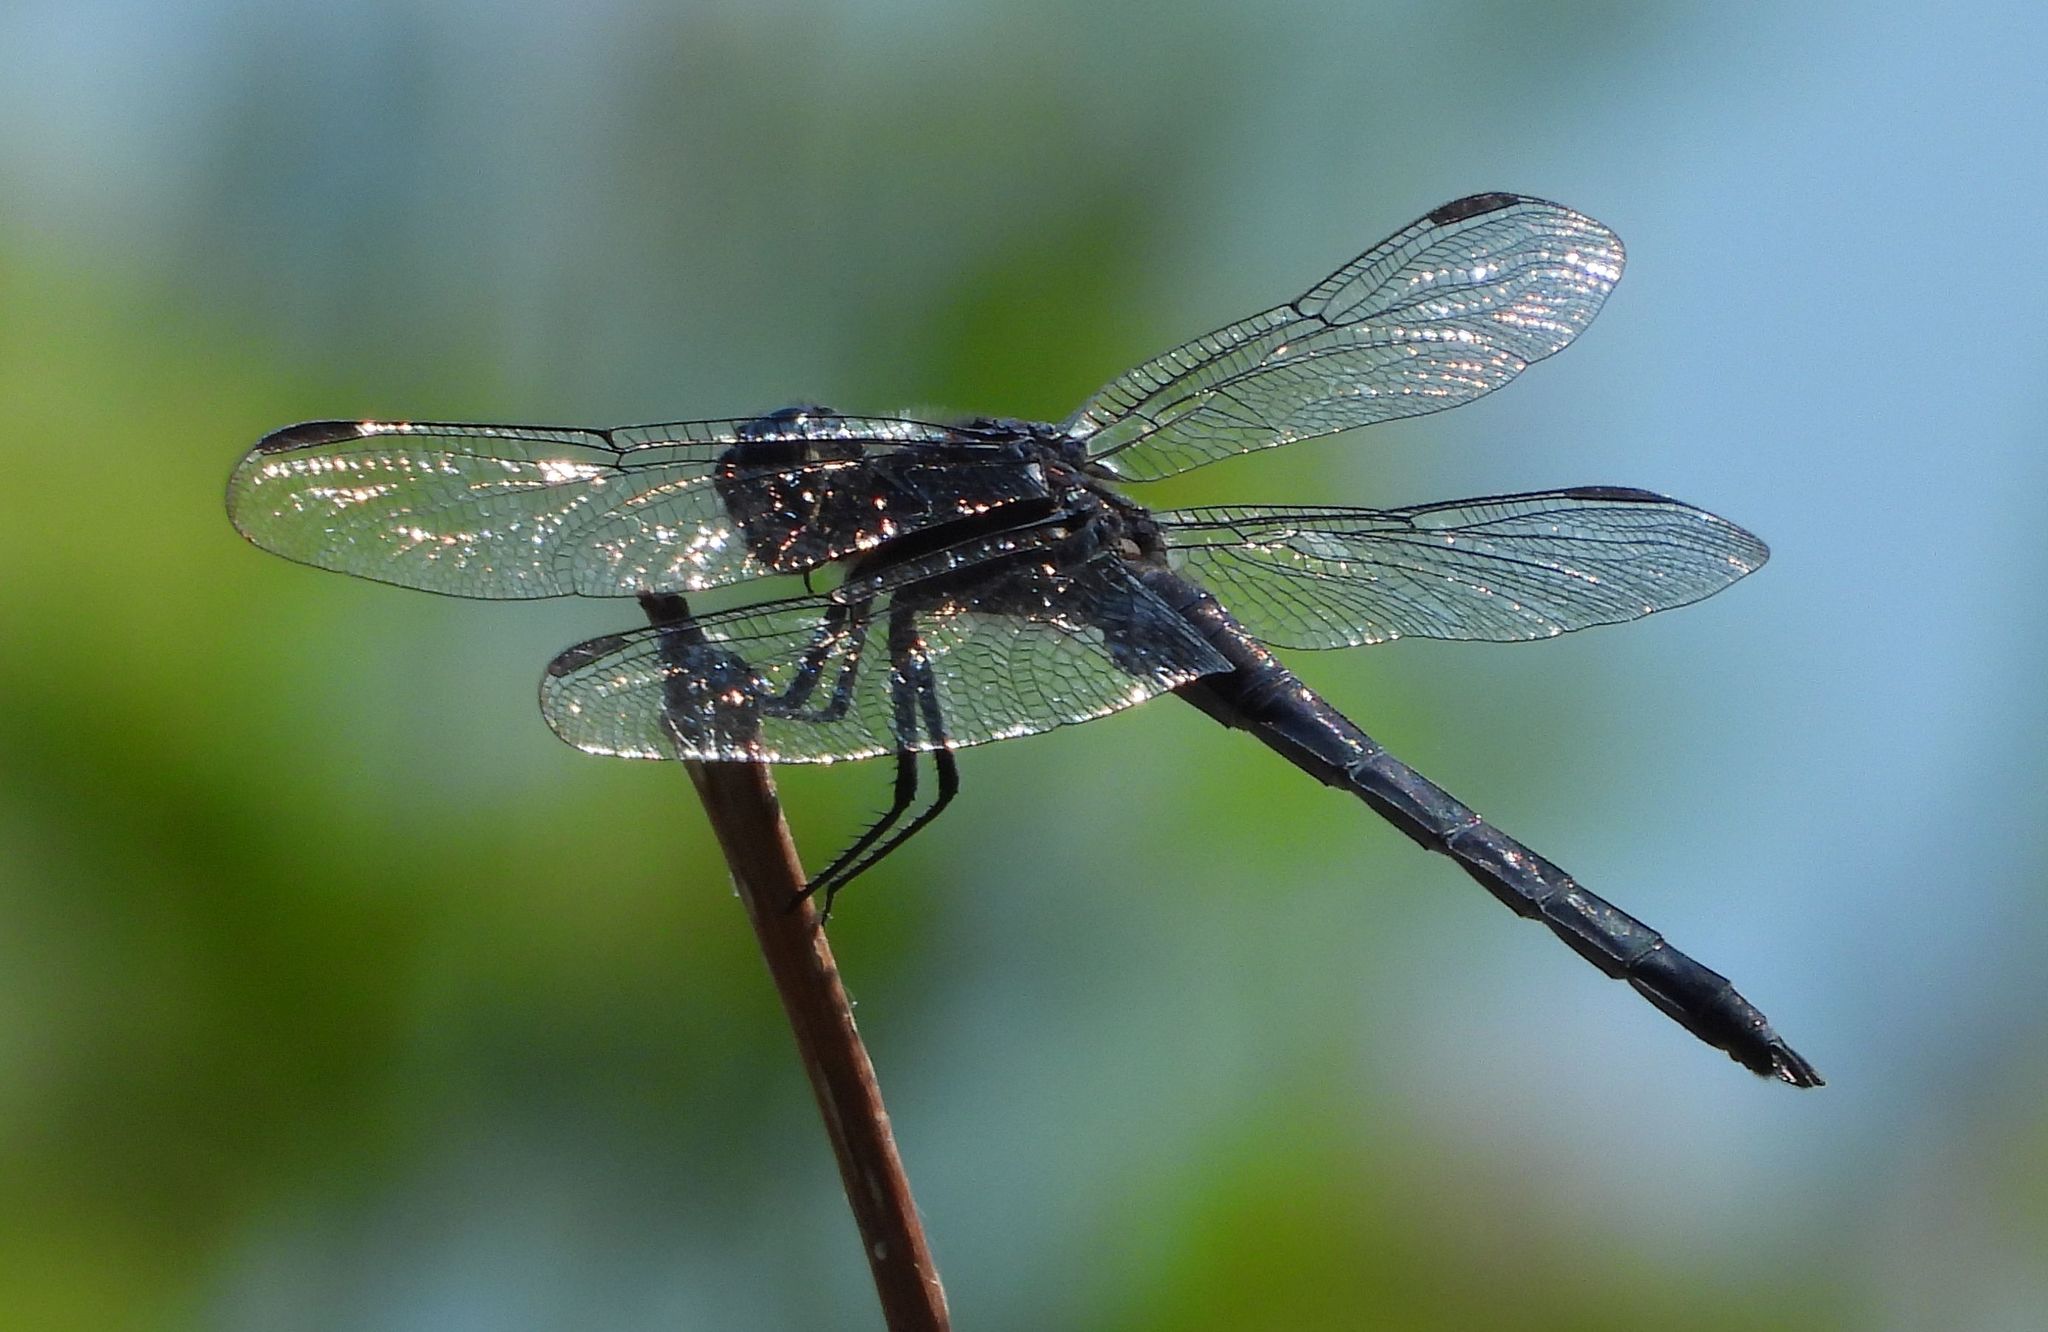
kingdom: Animalia
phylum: Arthropoda
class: Insecta
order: Odonata
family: Libellulidae
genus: Libellula
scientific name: Libellula incesta
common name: Slaty skimmer
